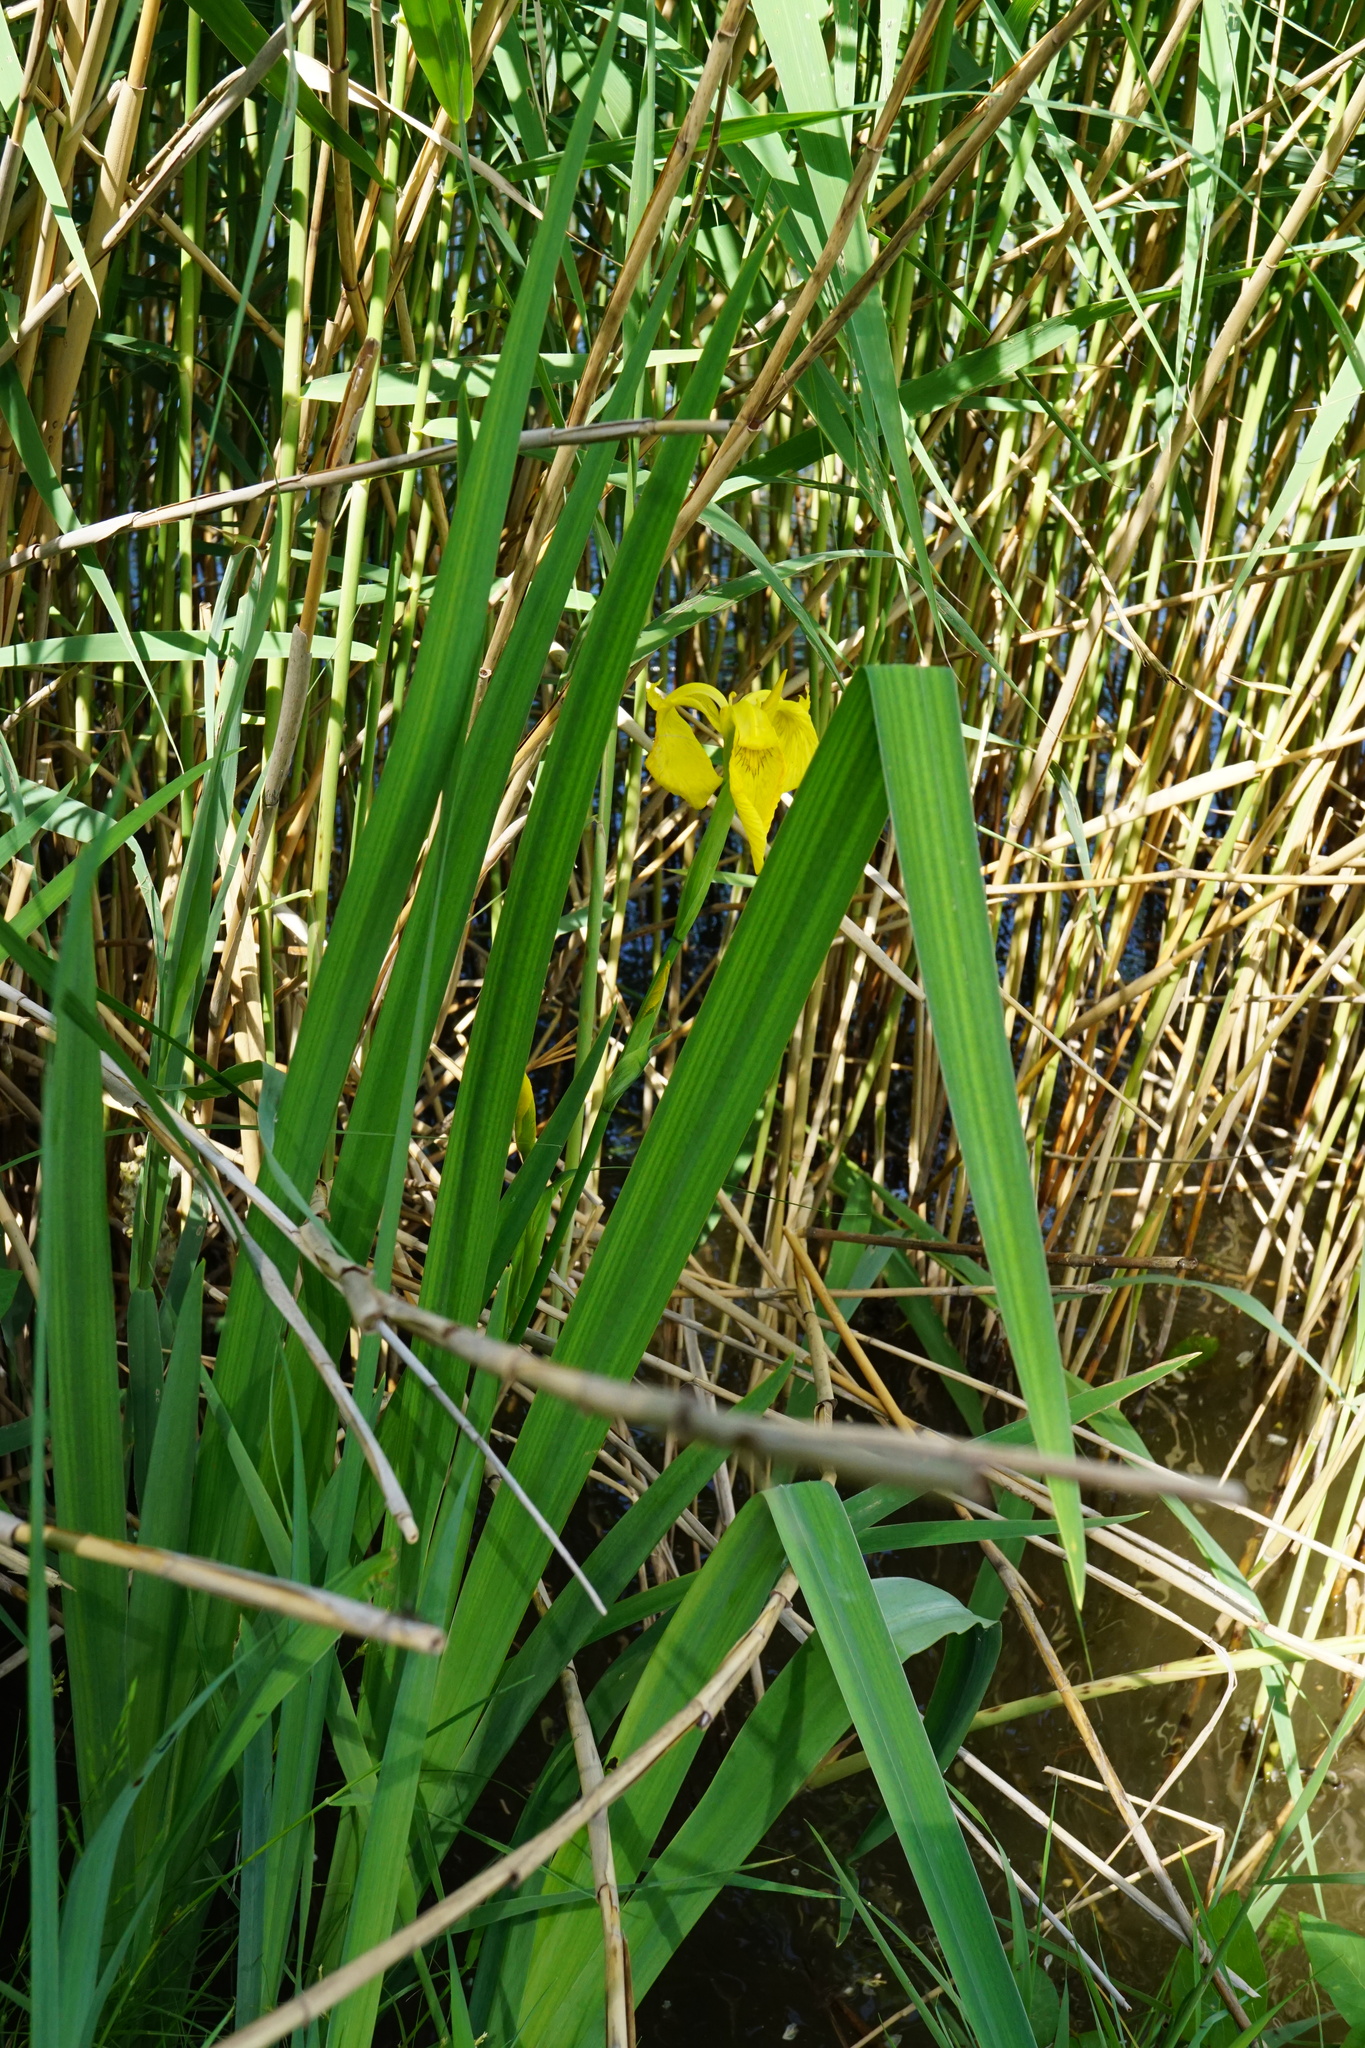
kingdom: Plantae
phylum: Tracheophyta
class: Liliopsida
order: Asparagales
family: Iridaceae
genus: Iris
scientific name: Iris pseudacorus
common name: Yellow flag
